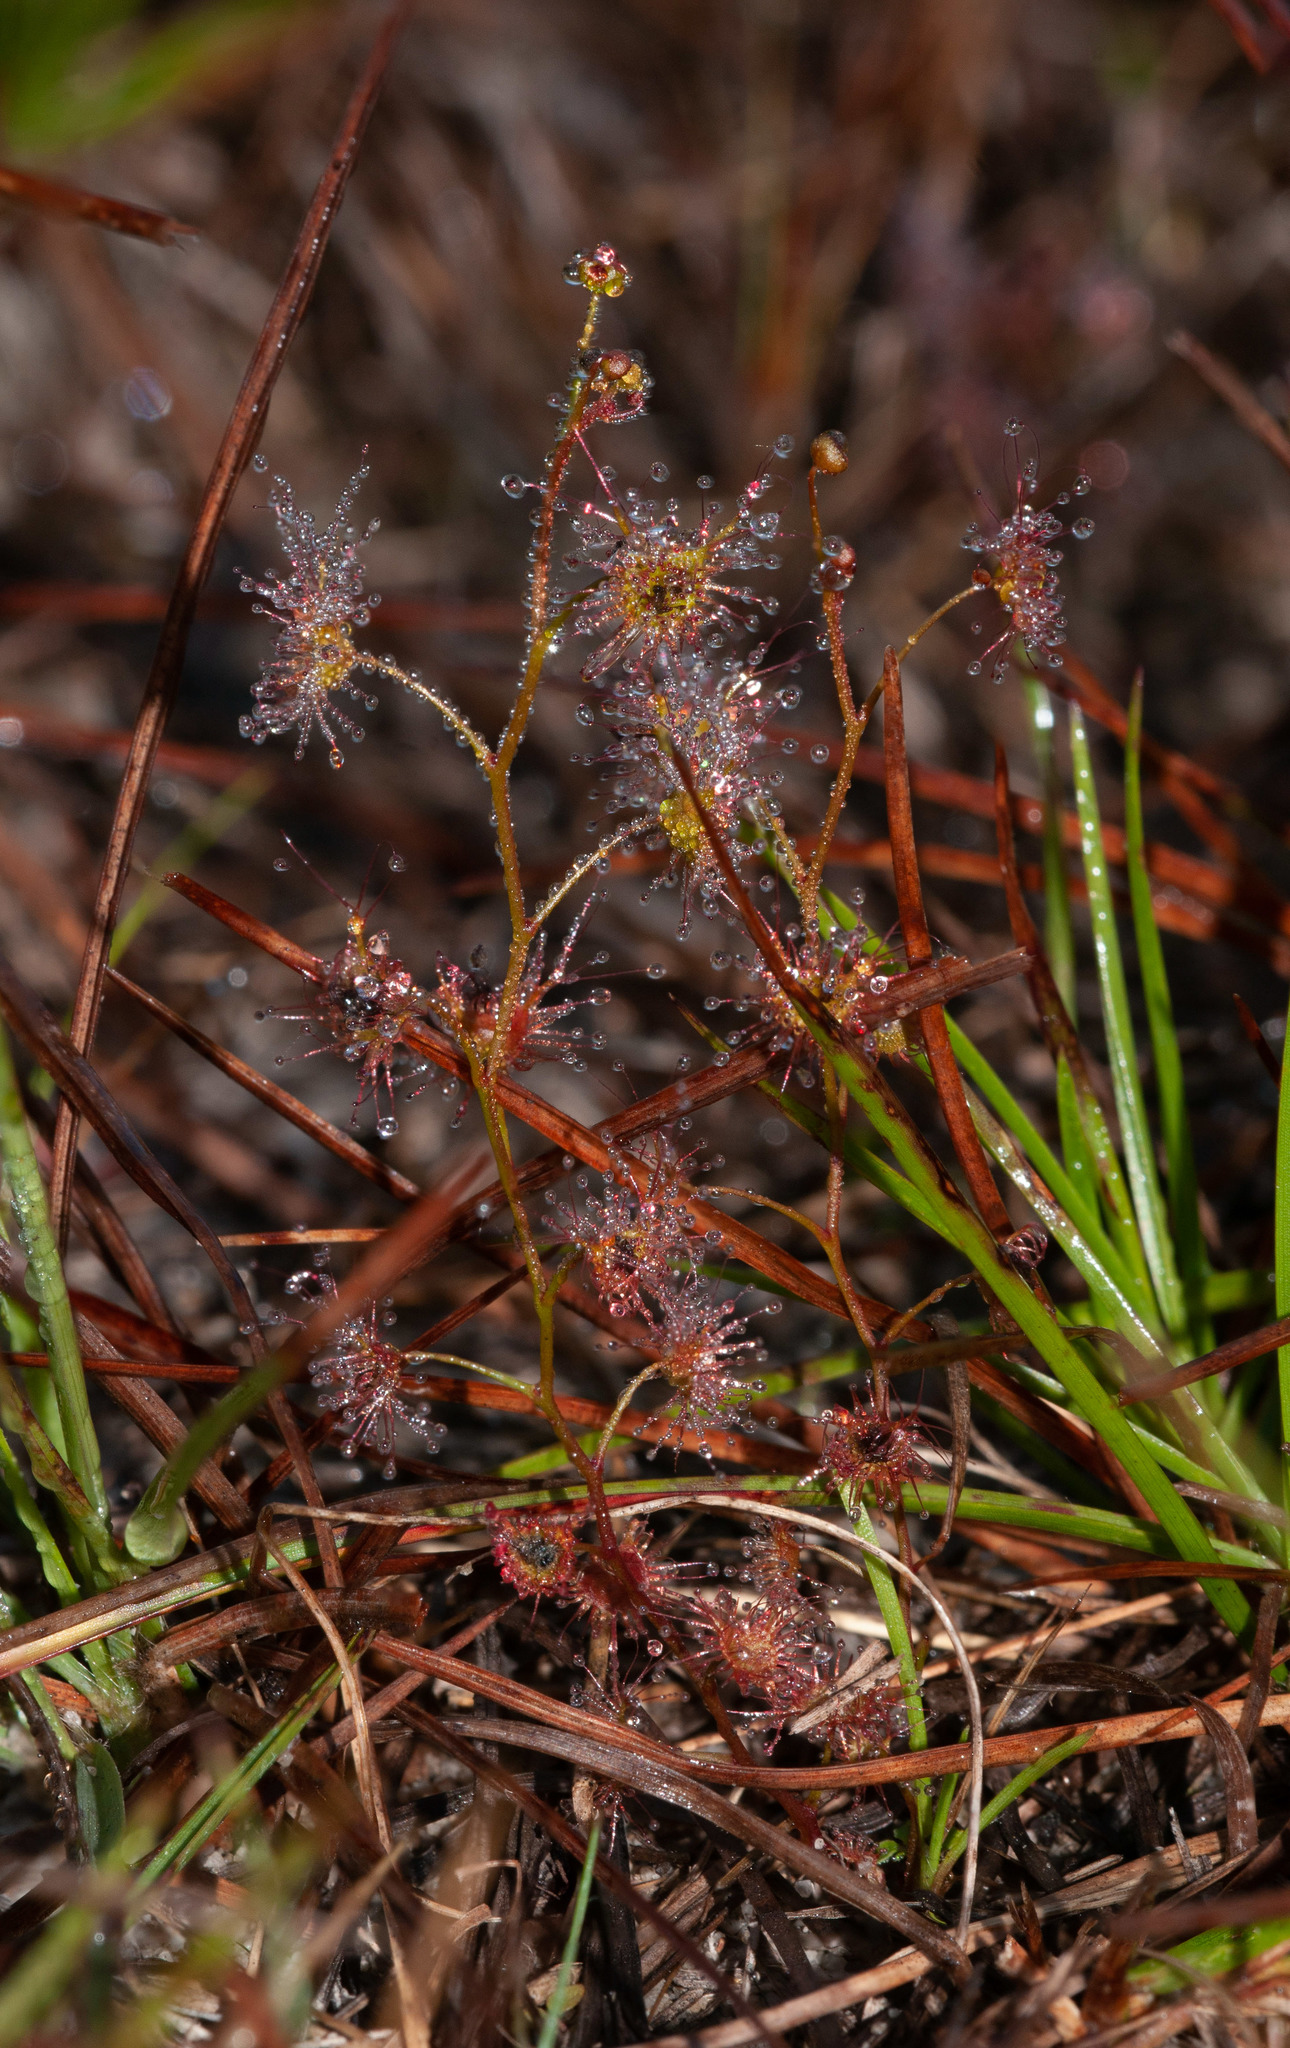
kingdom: Plantae
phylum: Tracheophyta
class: Magnoliopsida
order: Caryophyllales
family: Droseraceae
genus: Drosera
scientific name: Drosera peltata
